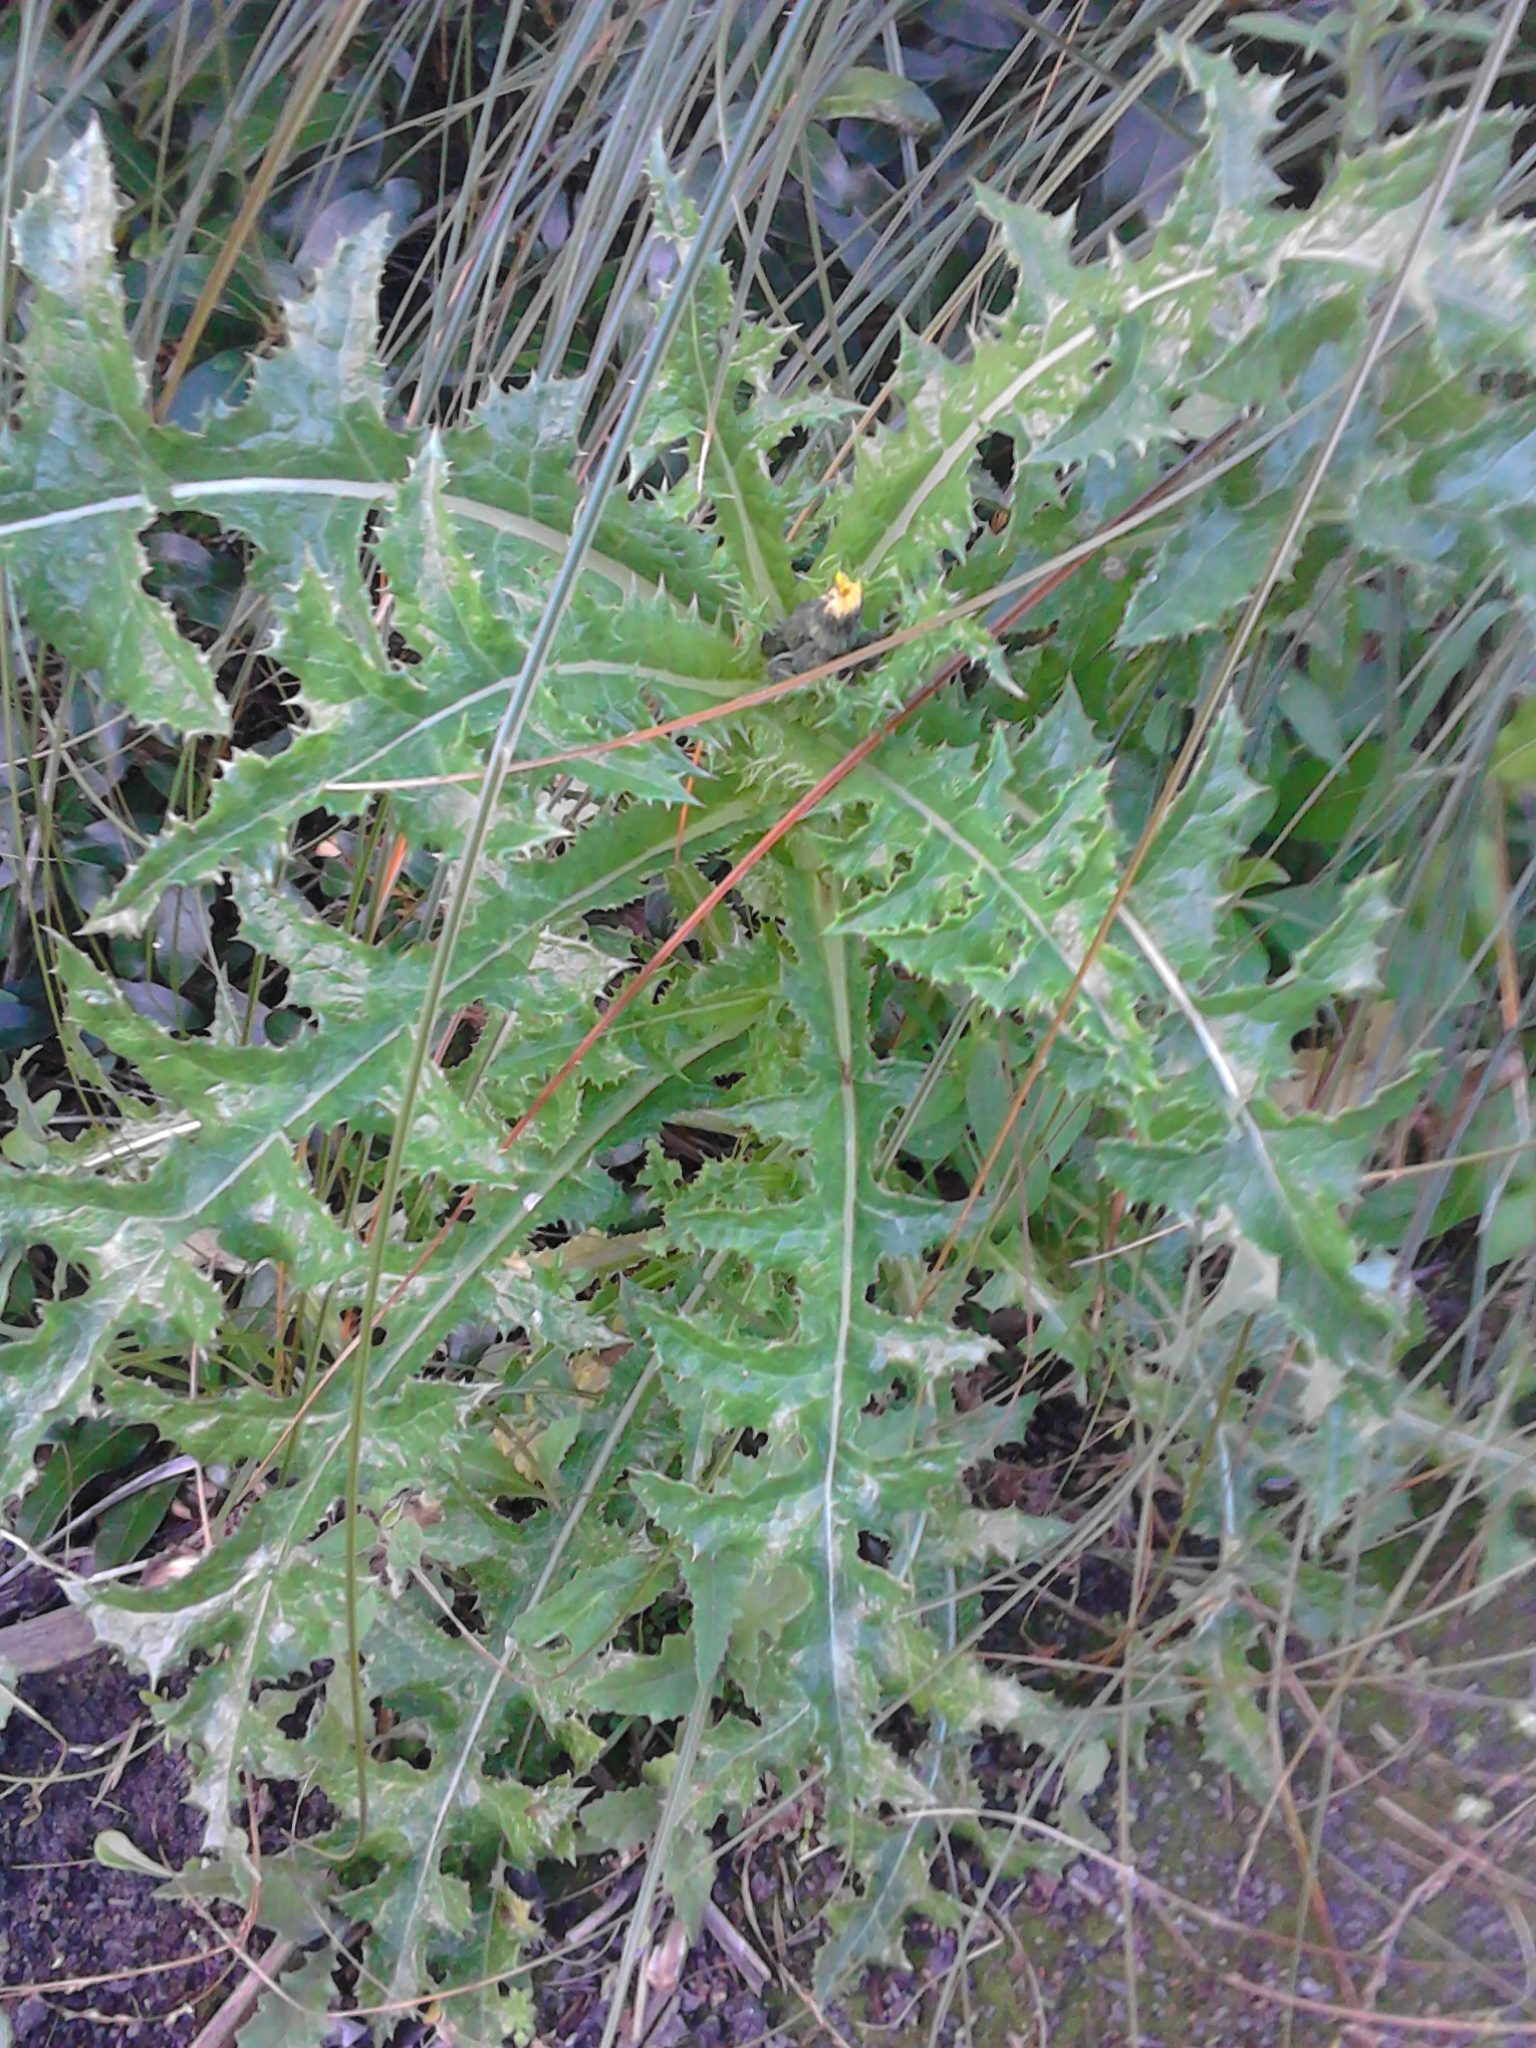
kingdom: Plantae
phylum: Tracheophyta
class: Magnoliopsida
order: Asterales
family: Asteraceae
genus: Sonchus
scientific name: Sonchus asper
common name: Prickly sow-thistle
